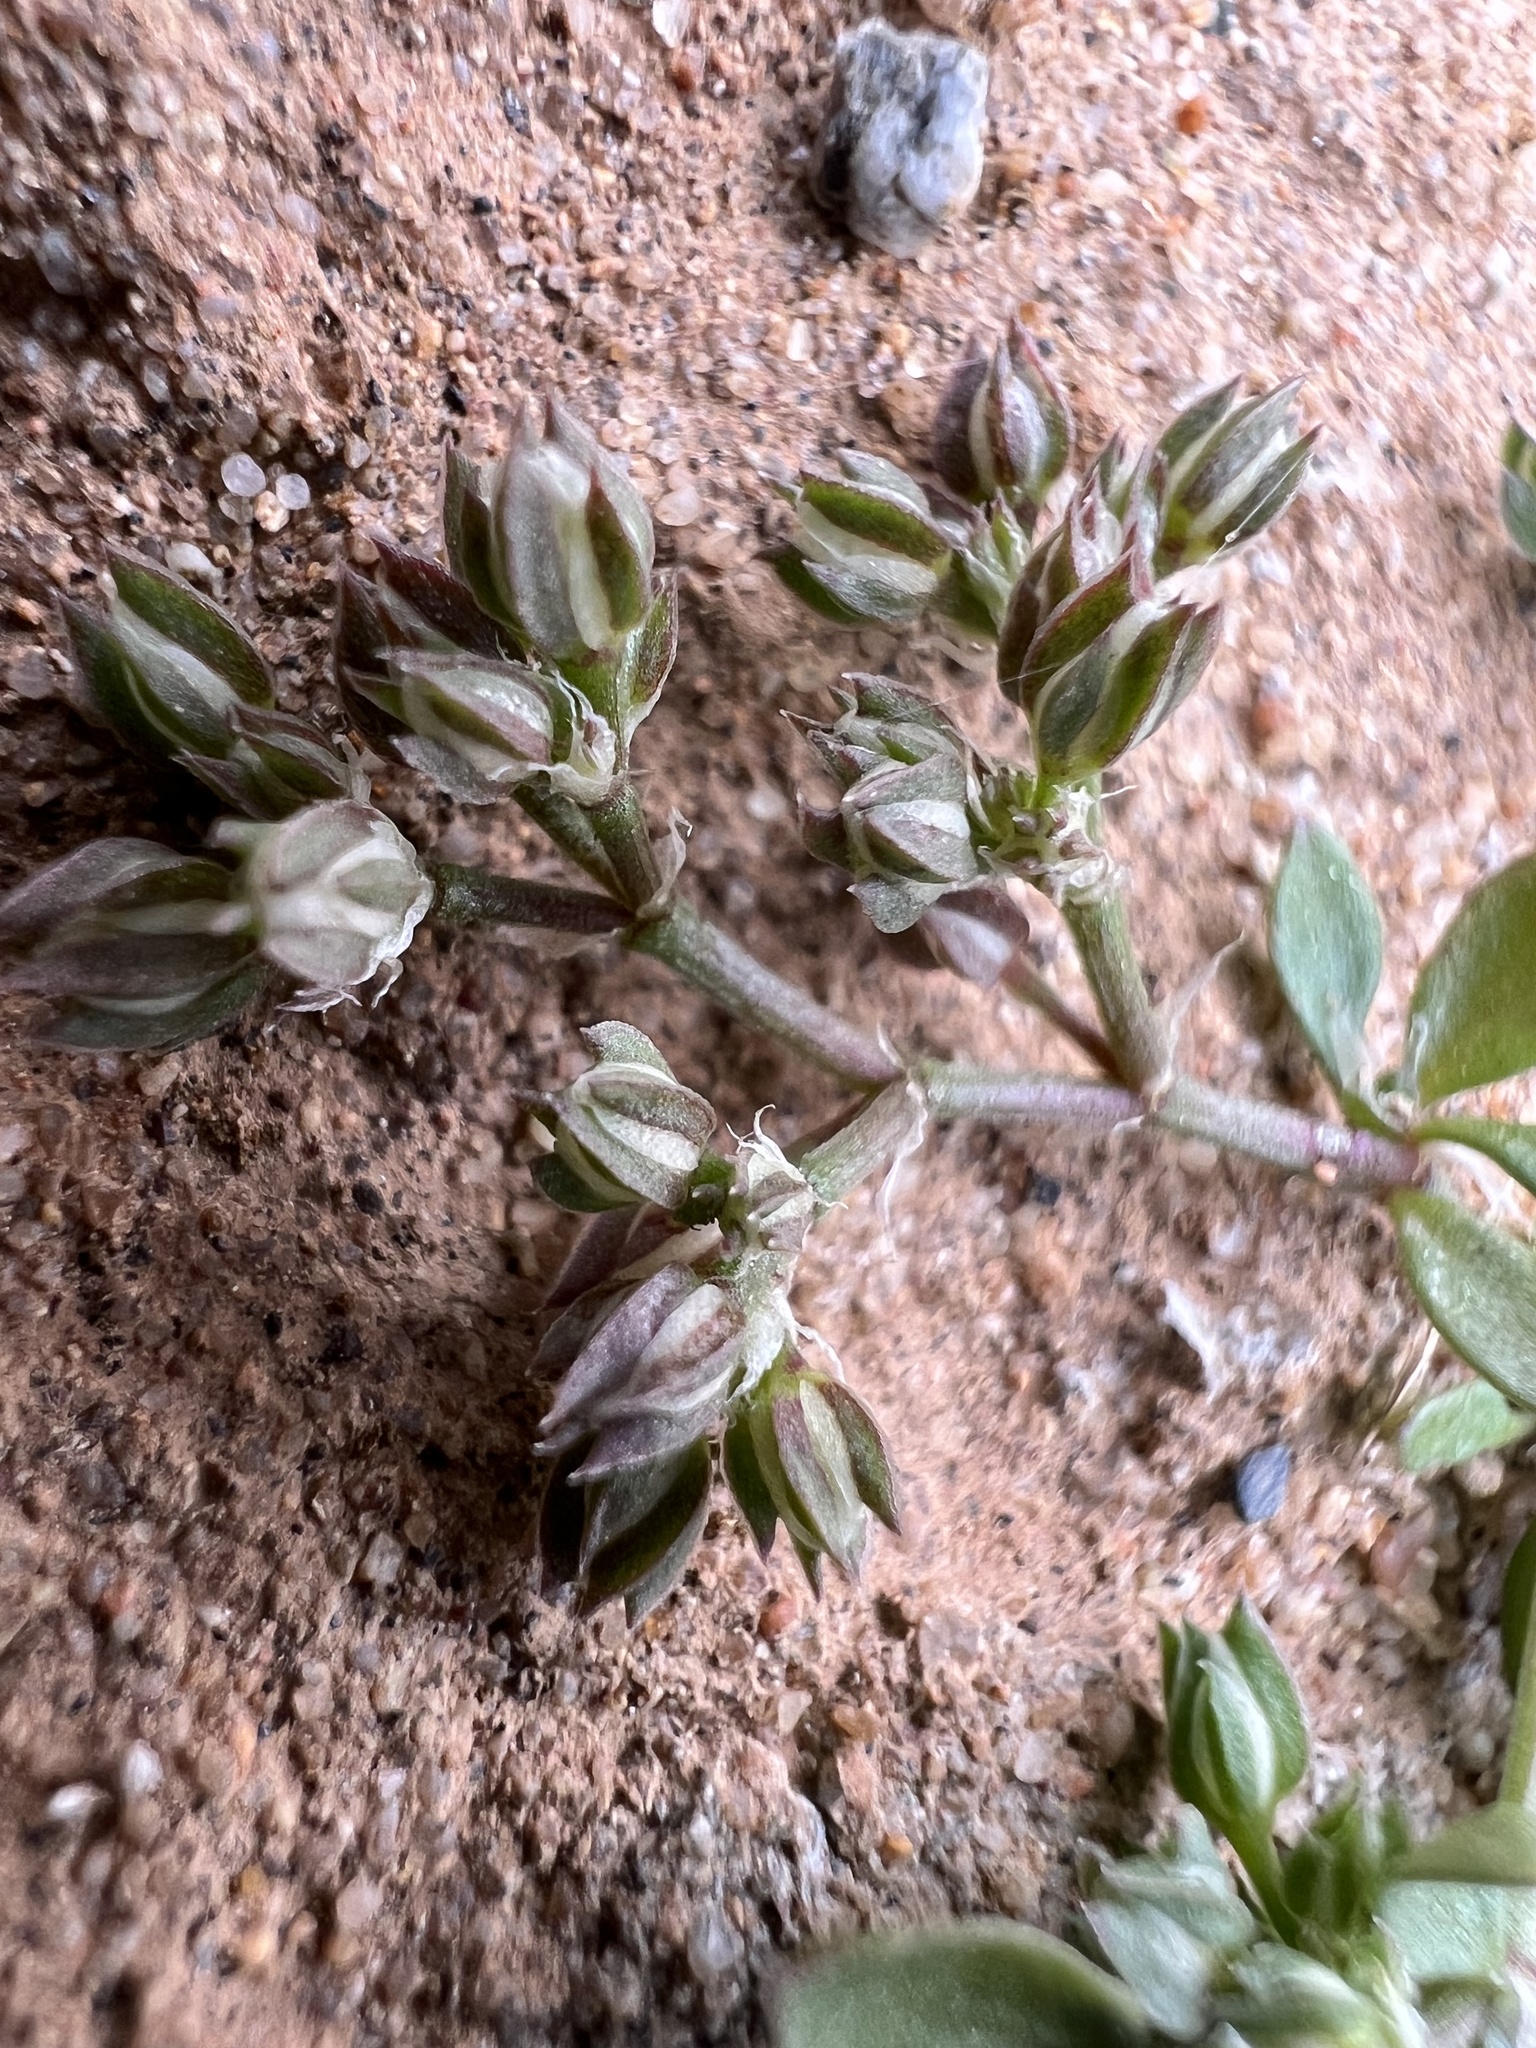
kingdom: Plantae
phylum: Tracheophyta
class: Magnoliopsida
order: Caryophyllales
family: Caryophyllaceae
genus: Polycarpon
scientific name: Polycarpon tetraphyllum
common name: Four-leaved all-seed
